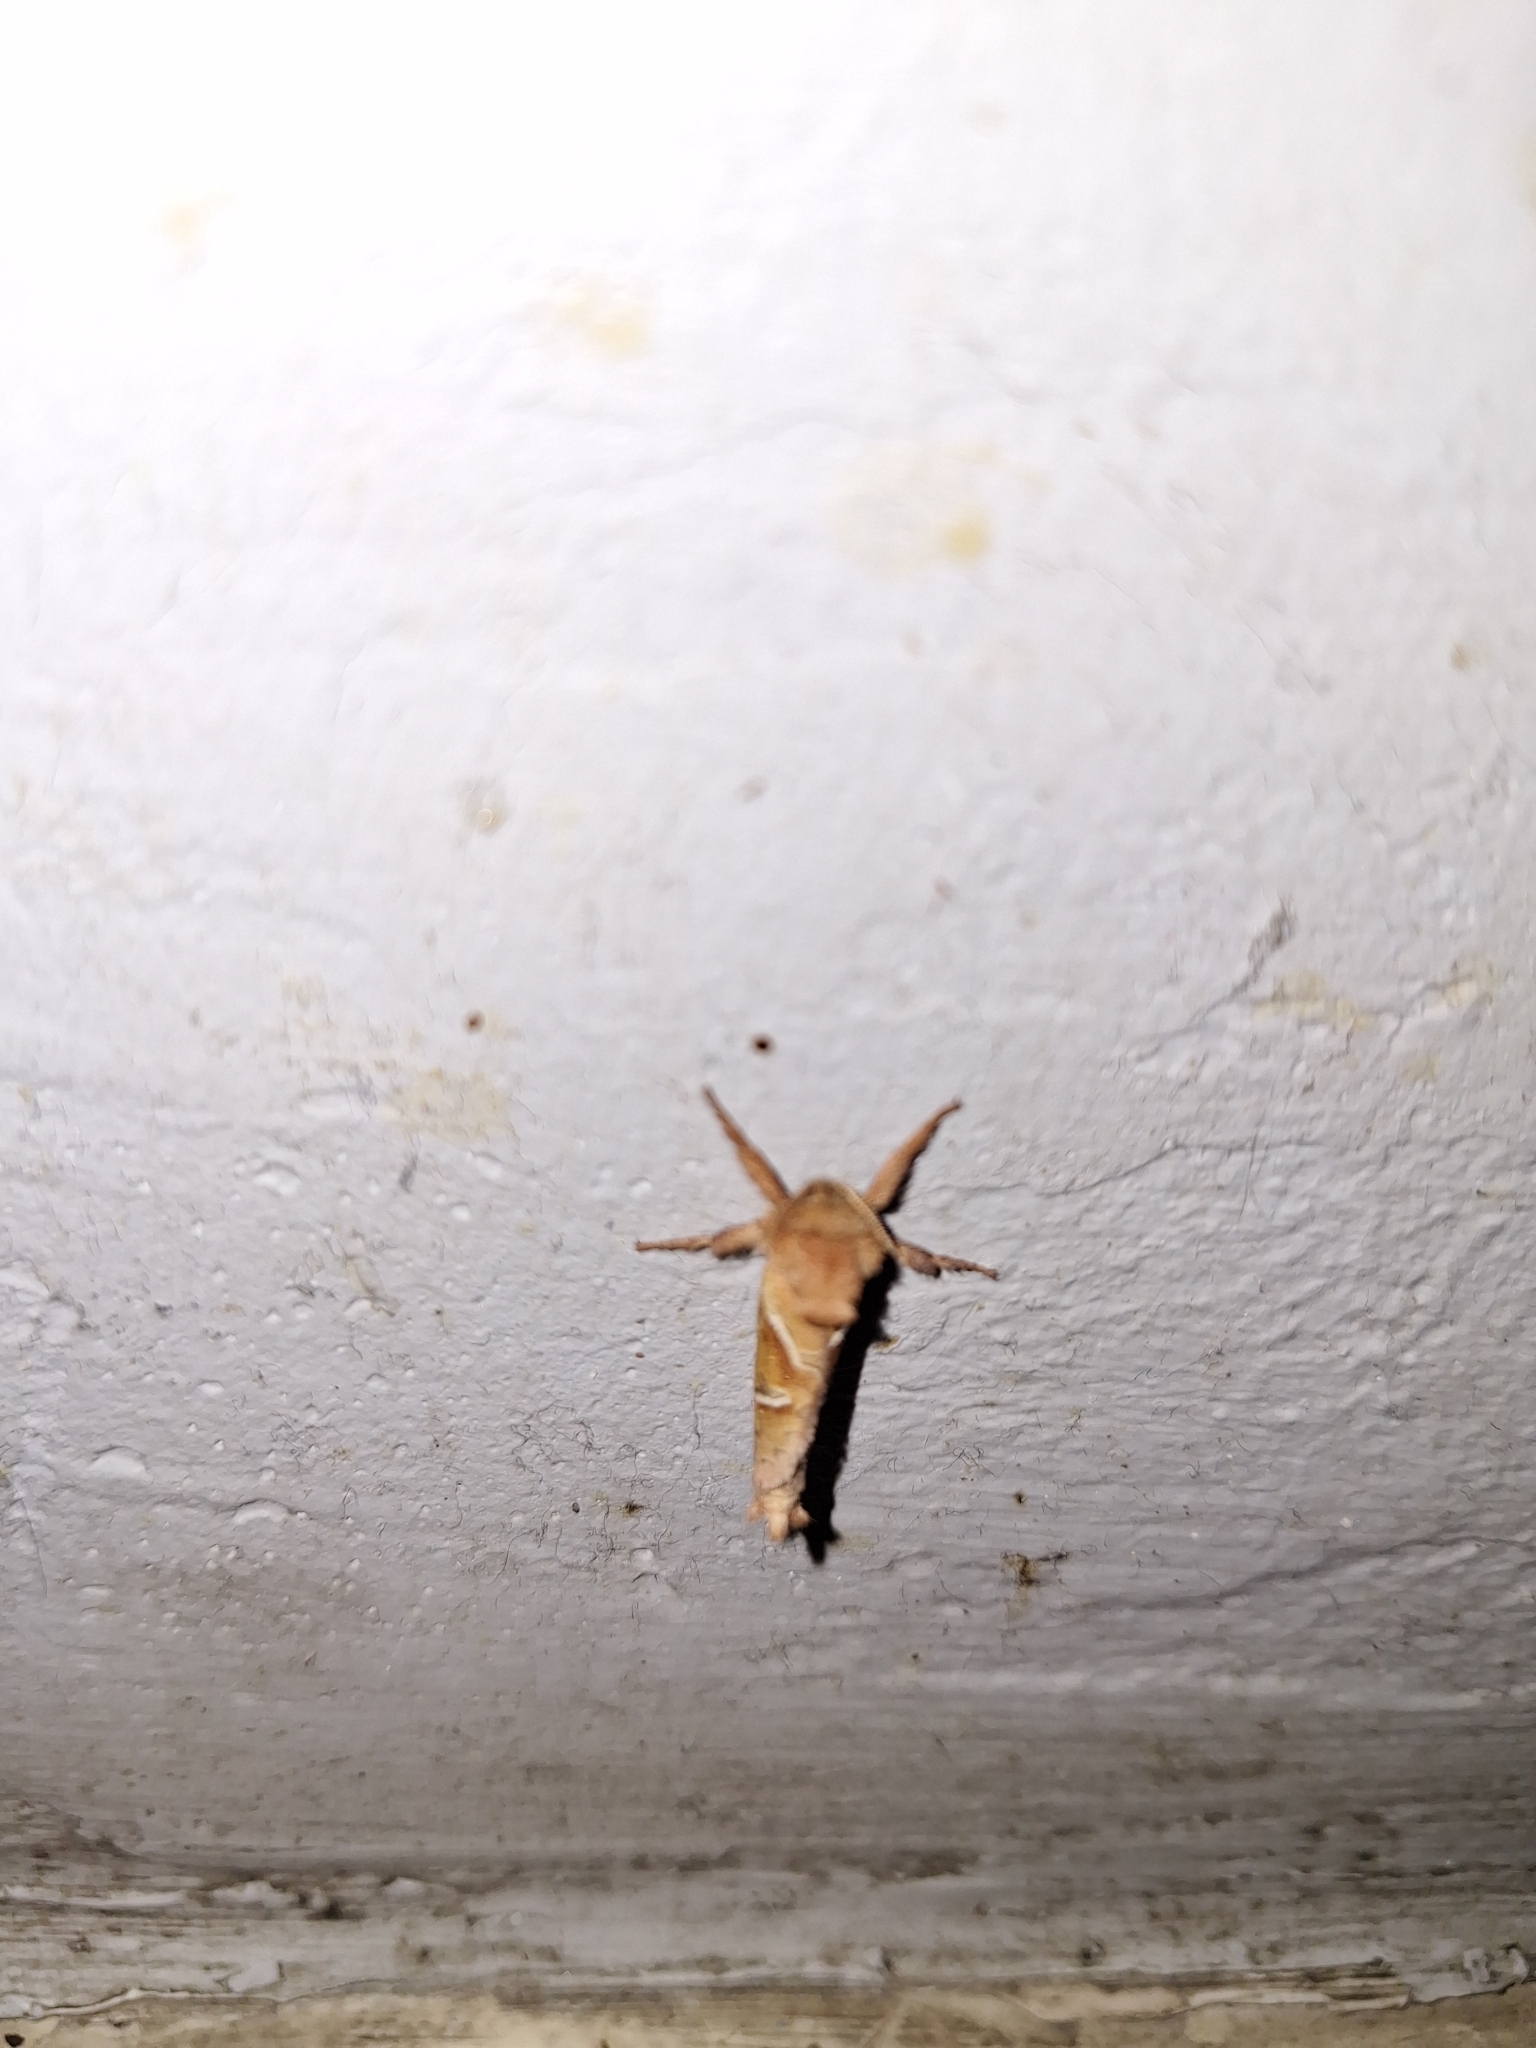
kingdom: Animalia
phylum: Arthropoda
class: Insecta
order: Lepidoptera
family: Hepialidae
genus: Triodia
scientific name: Triodia sylvina
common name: Orange swift
